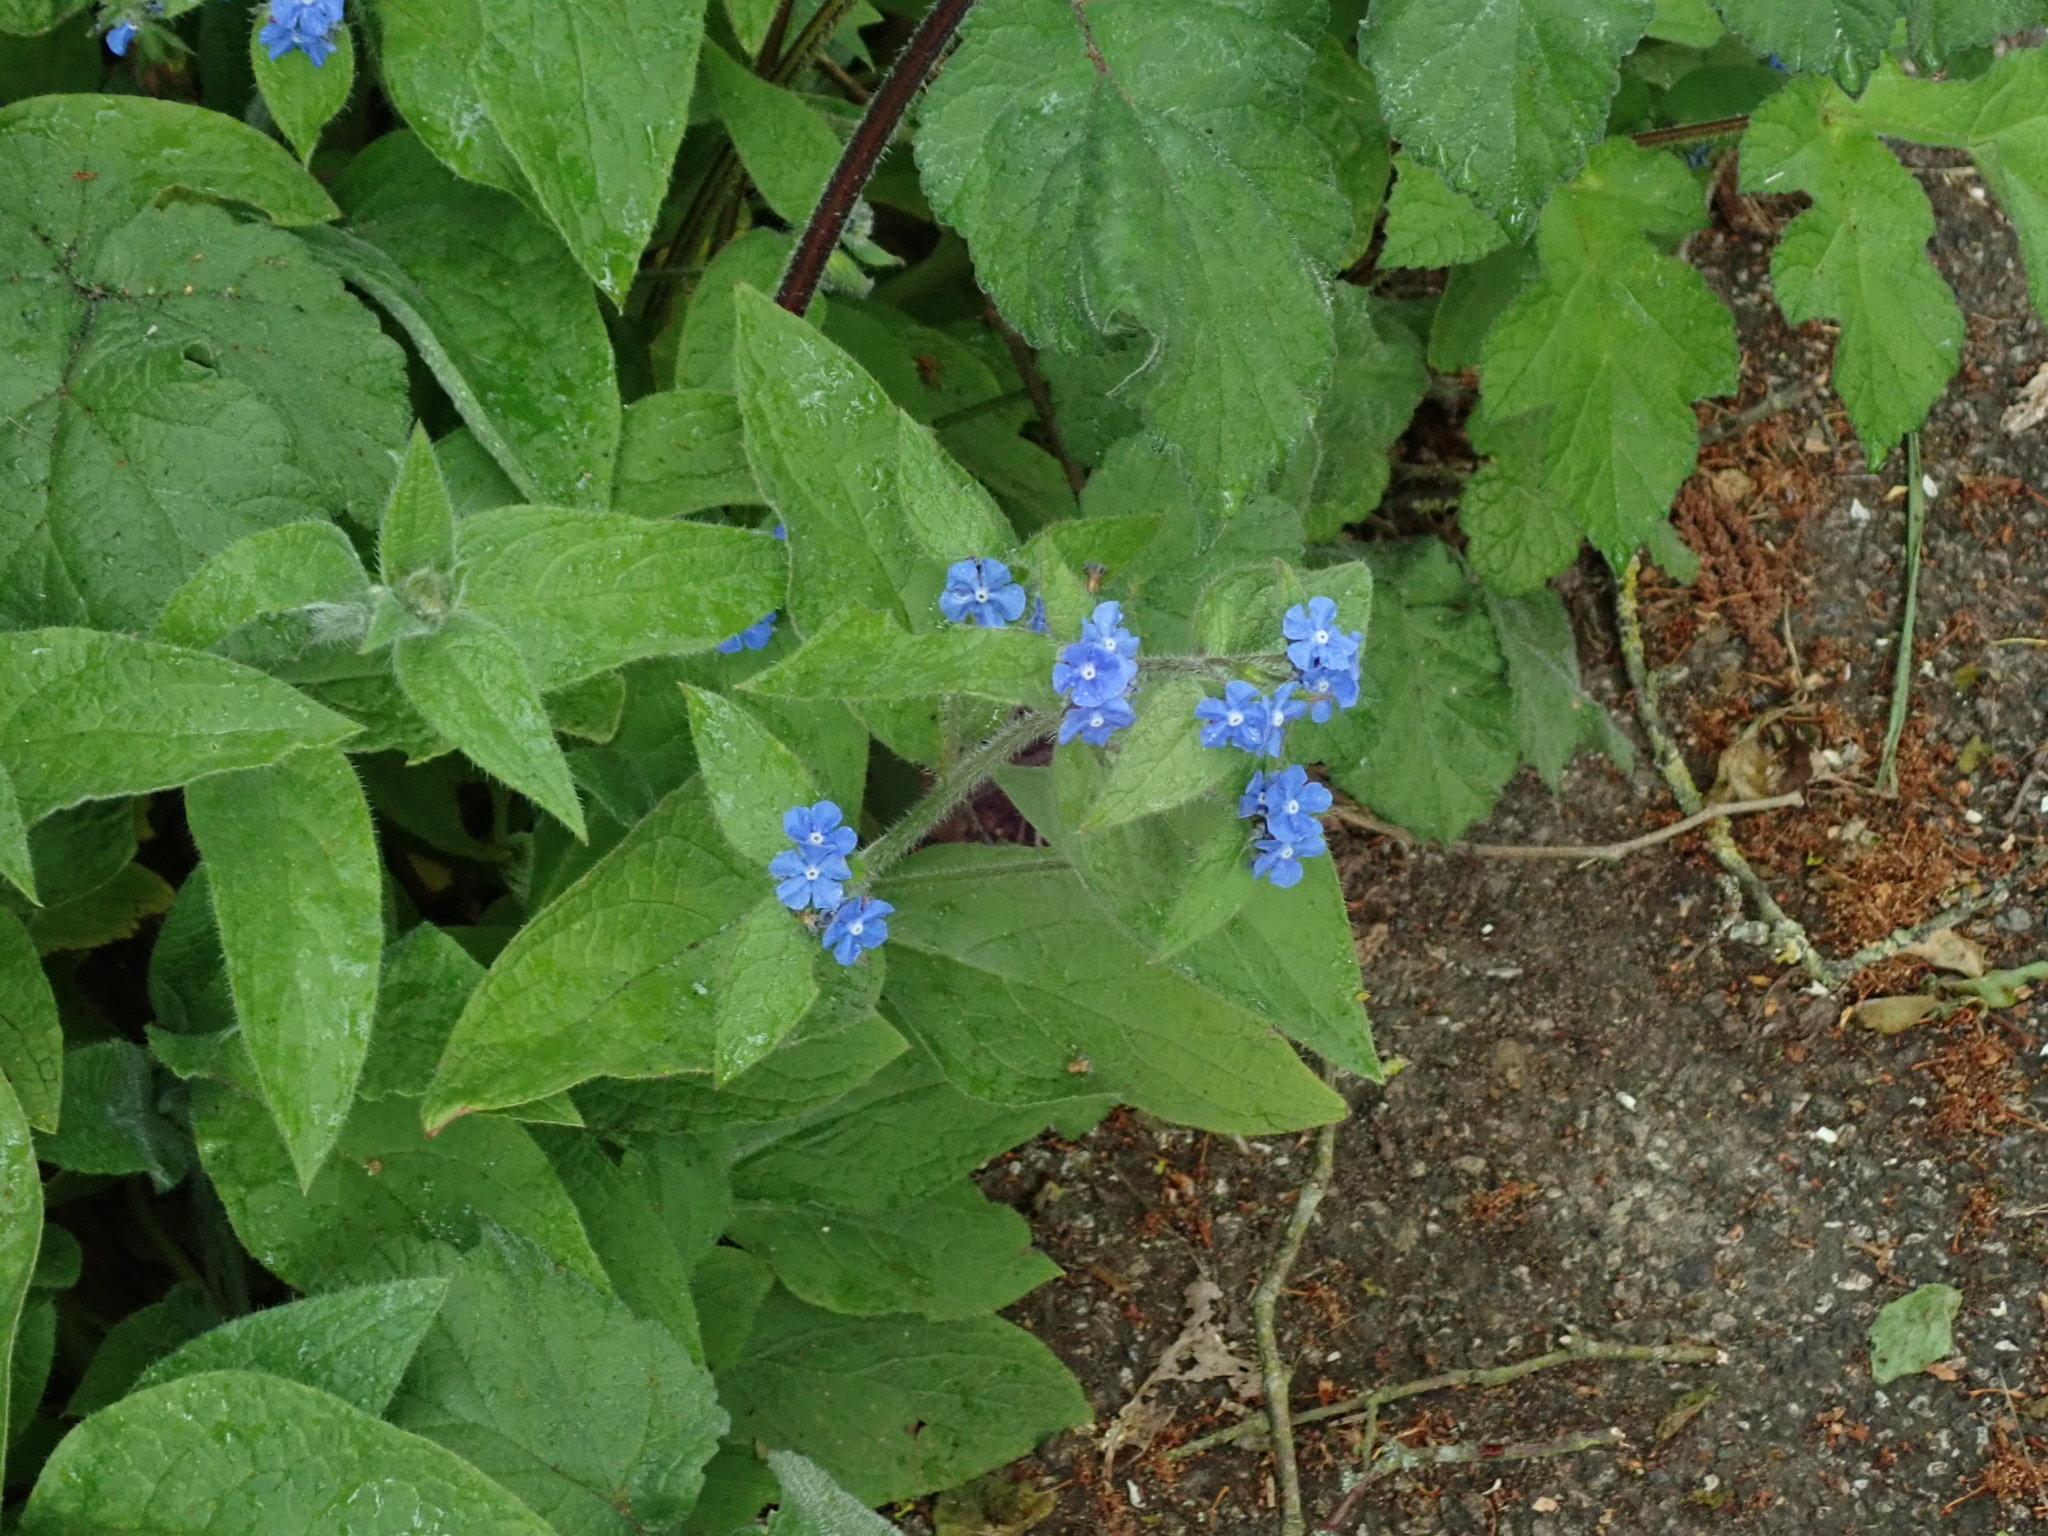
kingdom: Plantae
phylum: Tracheophyta
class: Magnoliopsida
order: Boraginales
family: Boraginaceae
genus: Pentaglottis
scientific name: Pentaglottis sempervirens
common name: Green alkanet
